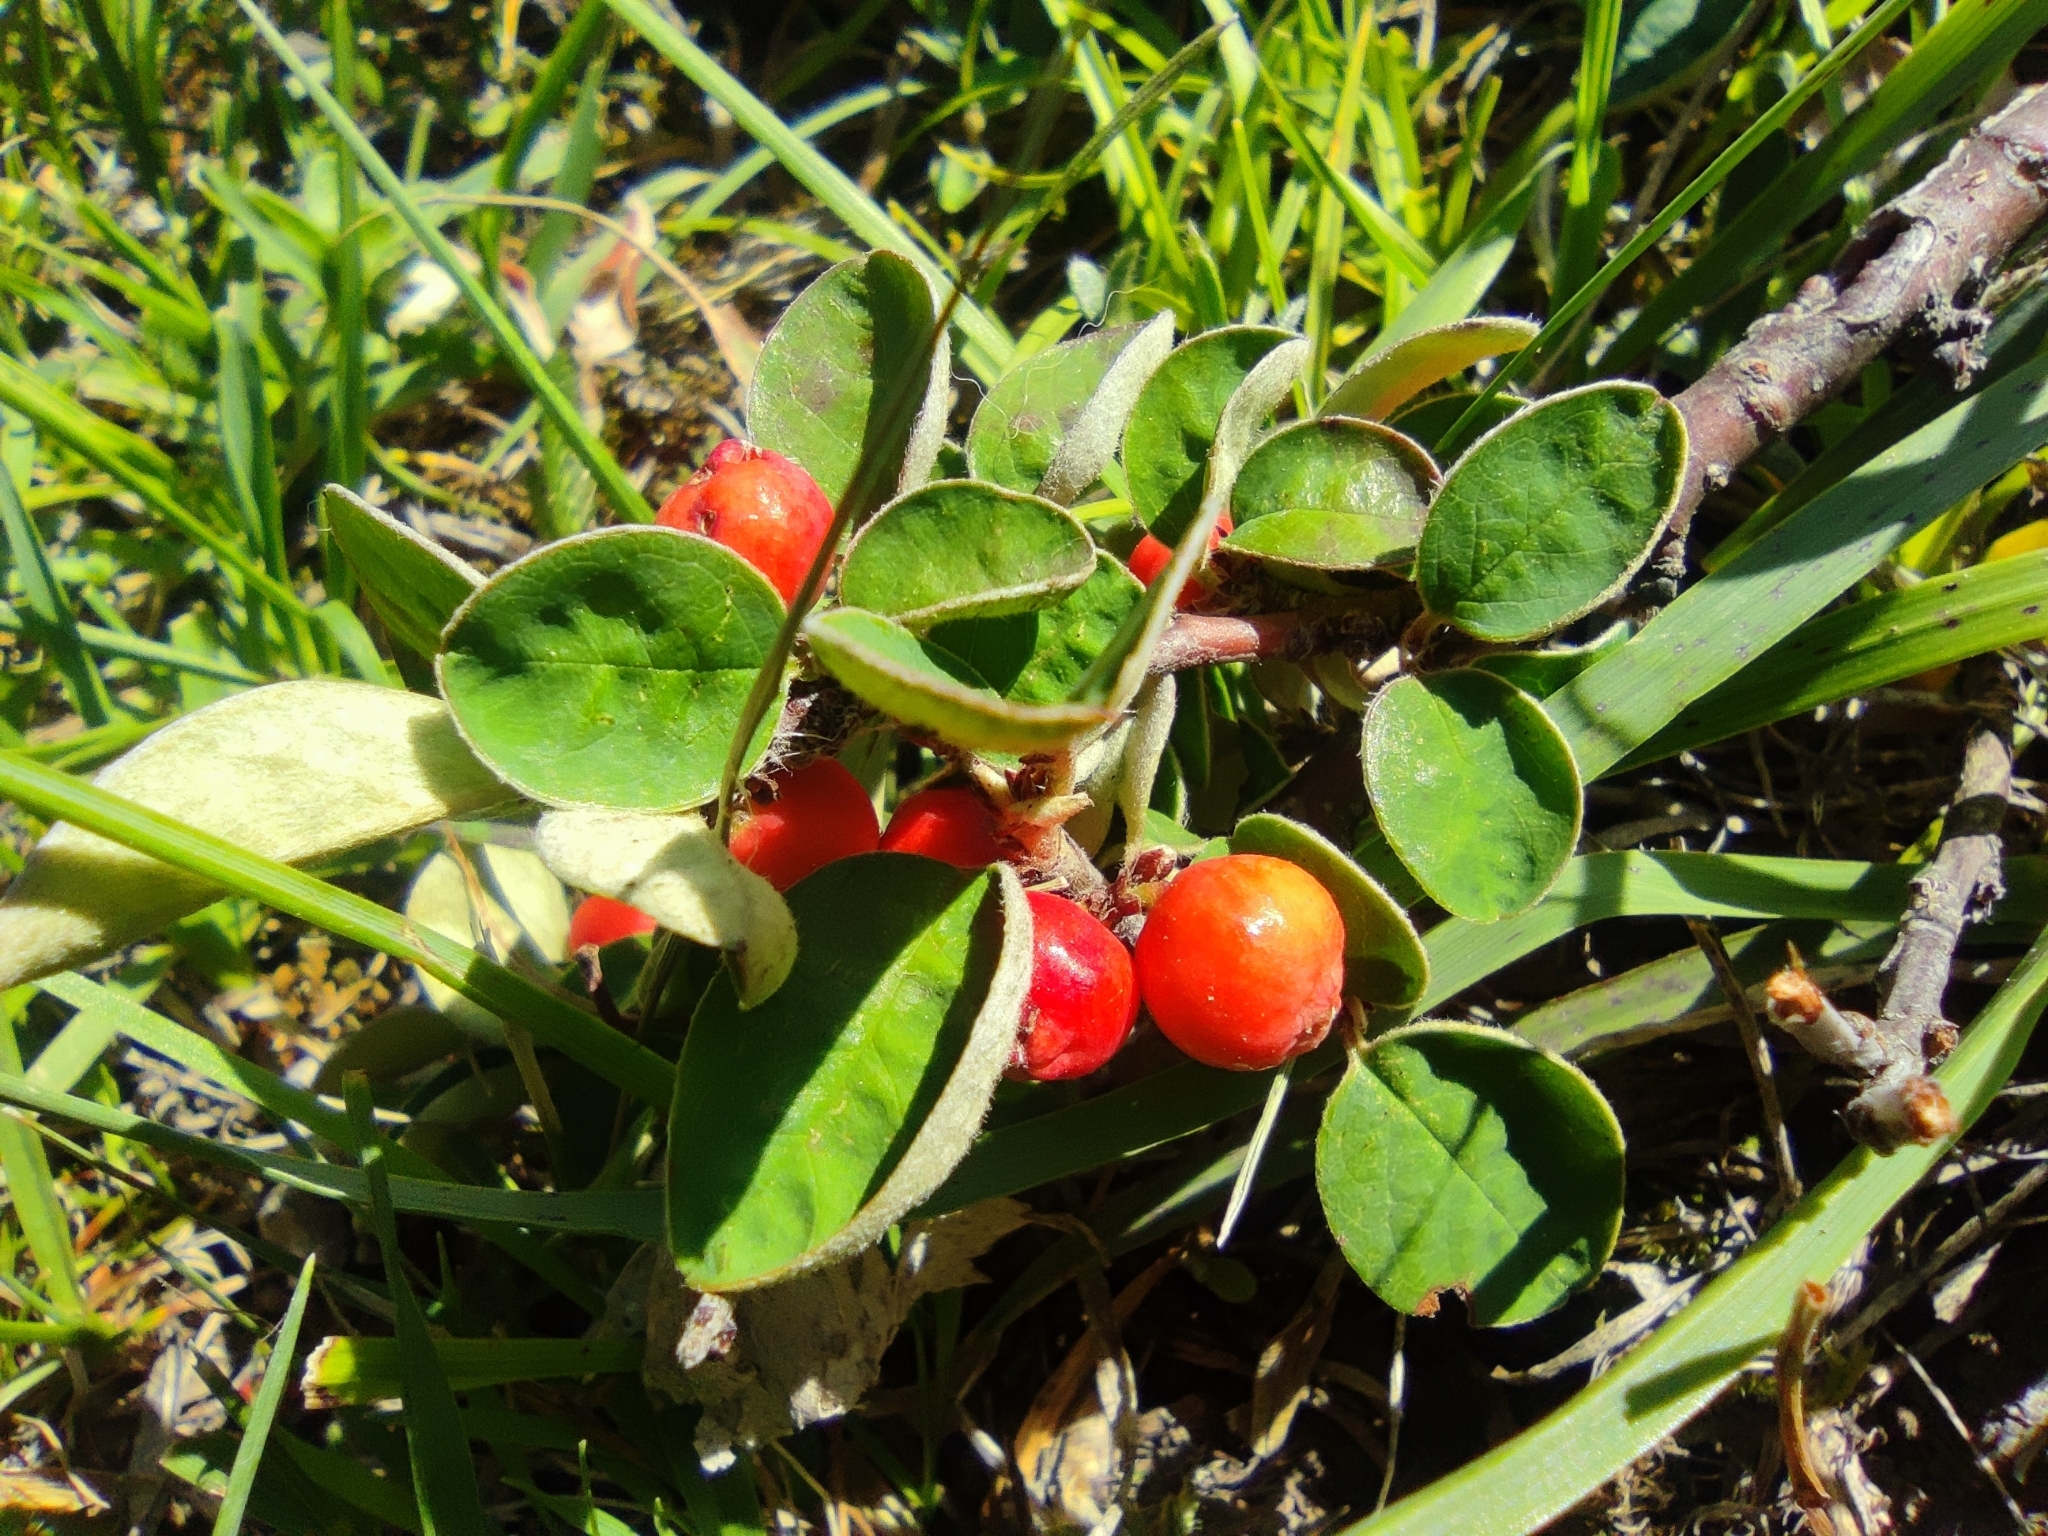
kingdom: Plantae
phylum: Tracheophyta
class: Magnoliopsida
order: Rosales
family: Rosaceae
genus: Cotoneaster
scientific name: Cotoneaster integerrimus
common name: Wild cotoneaster
